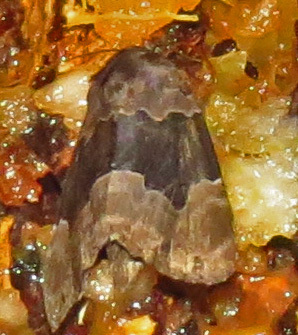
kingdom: Animalia
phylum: Arthropoda
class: Insecta
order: Lepidoptera
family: Erebidae
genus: Dinumma
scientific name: Dinumma deponens
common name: Purplish moth
